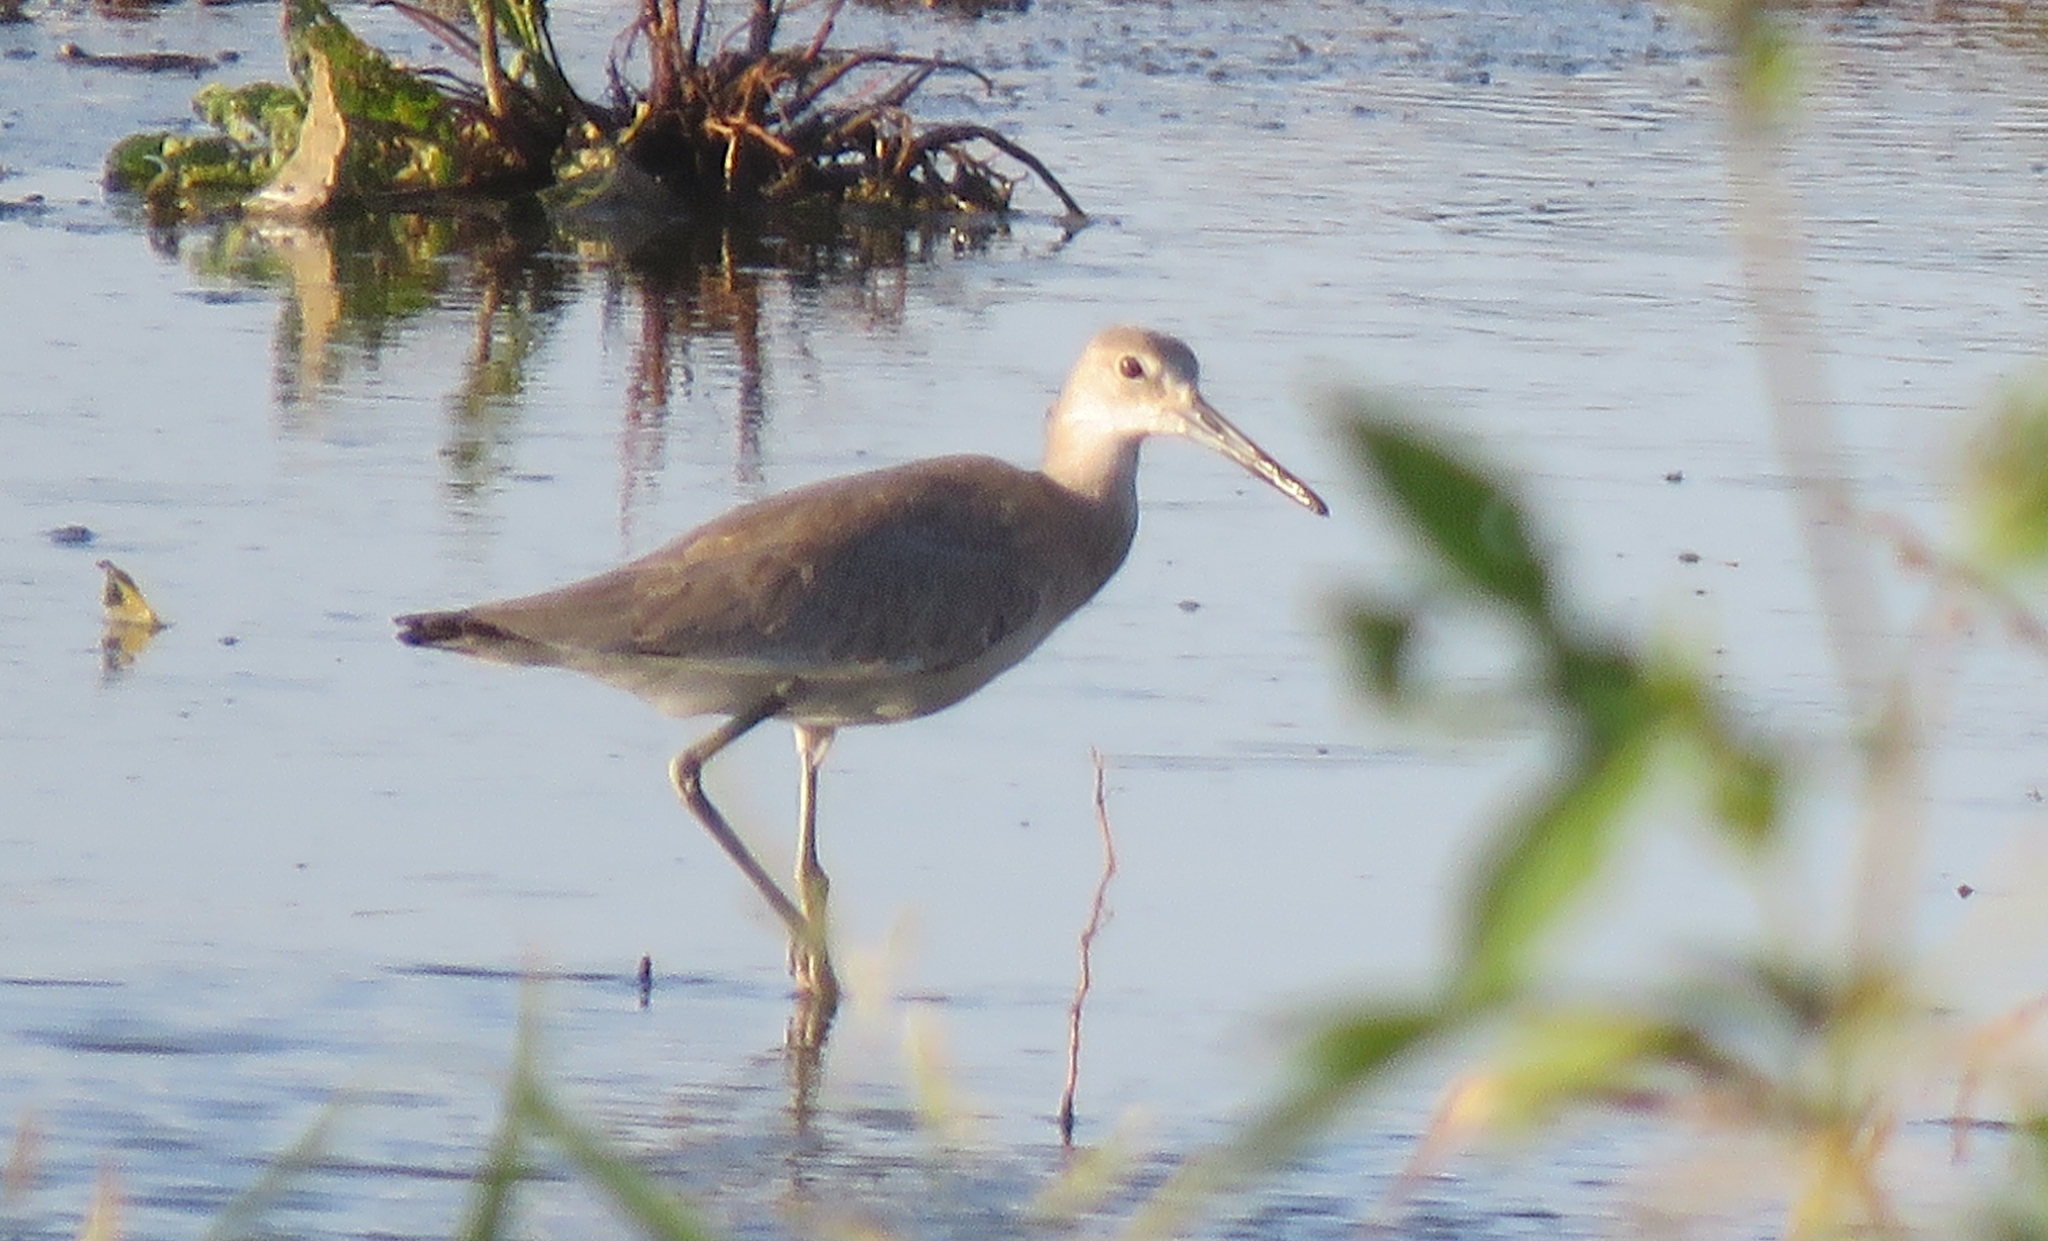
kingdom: Animalia
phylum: Chordata
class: Aves
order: Charadriiformes
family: Scolopacidae
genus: Tringa
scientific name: Tringa semipalmata
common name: Willet
